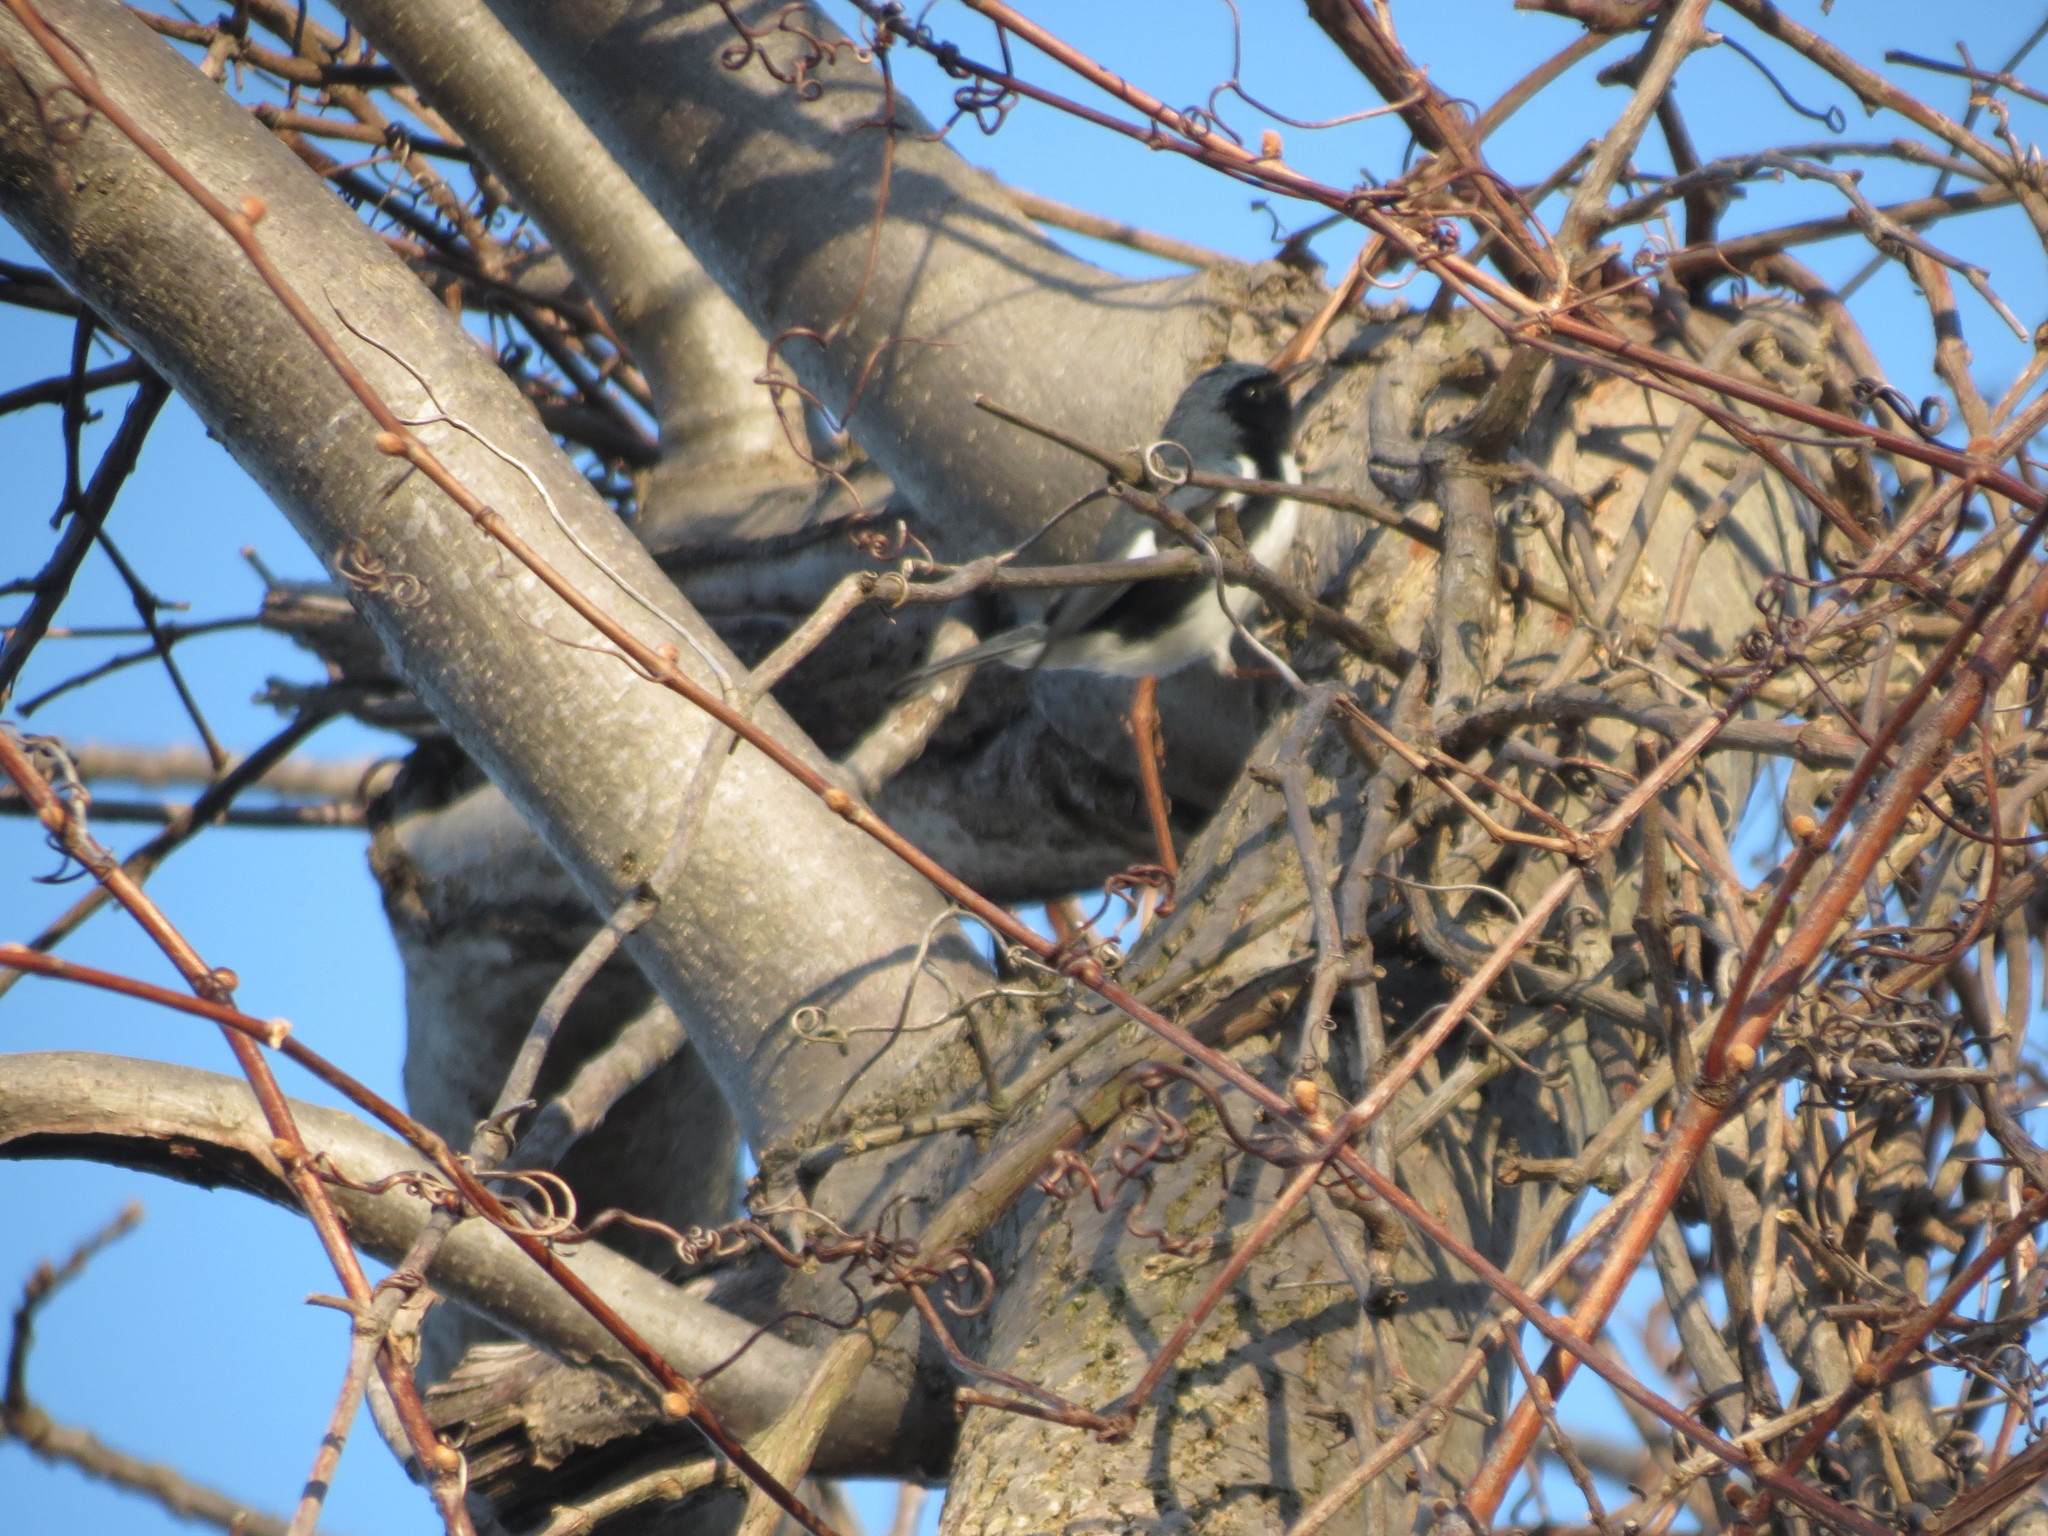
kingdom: Animalia
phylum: Chordata
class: Aves
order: Passeriformes
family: Parulidae
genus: Setophaga
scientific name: Setophaga caerulescens
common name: Black-throated blue warbler
